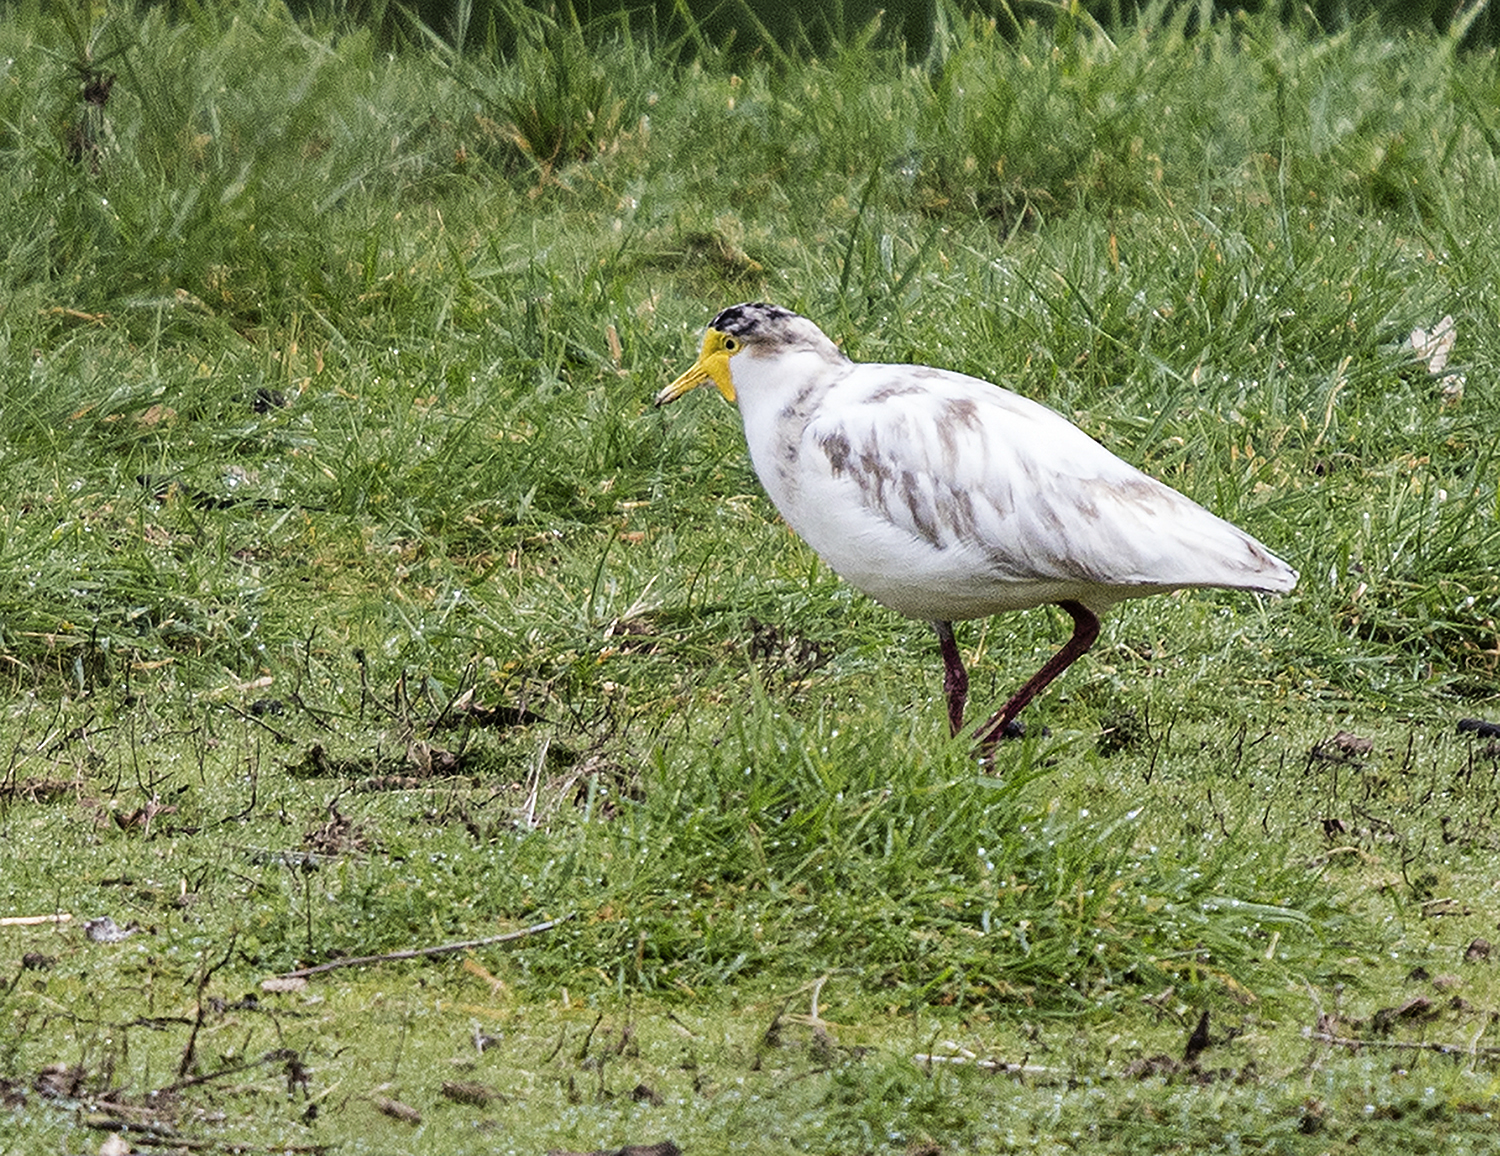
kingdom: Animalia
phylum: Chordata
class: Aves
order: Charadriiformes
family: Charadriidae
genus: Vanellus
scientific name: Vanellus miles
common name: Masked lapwing
